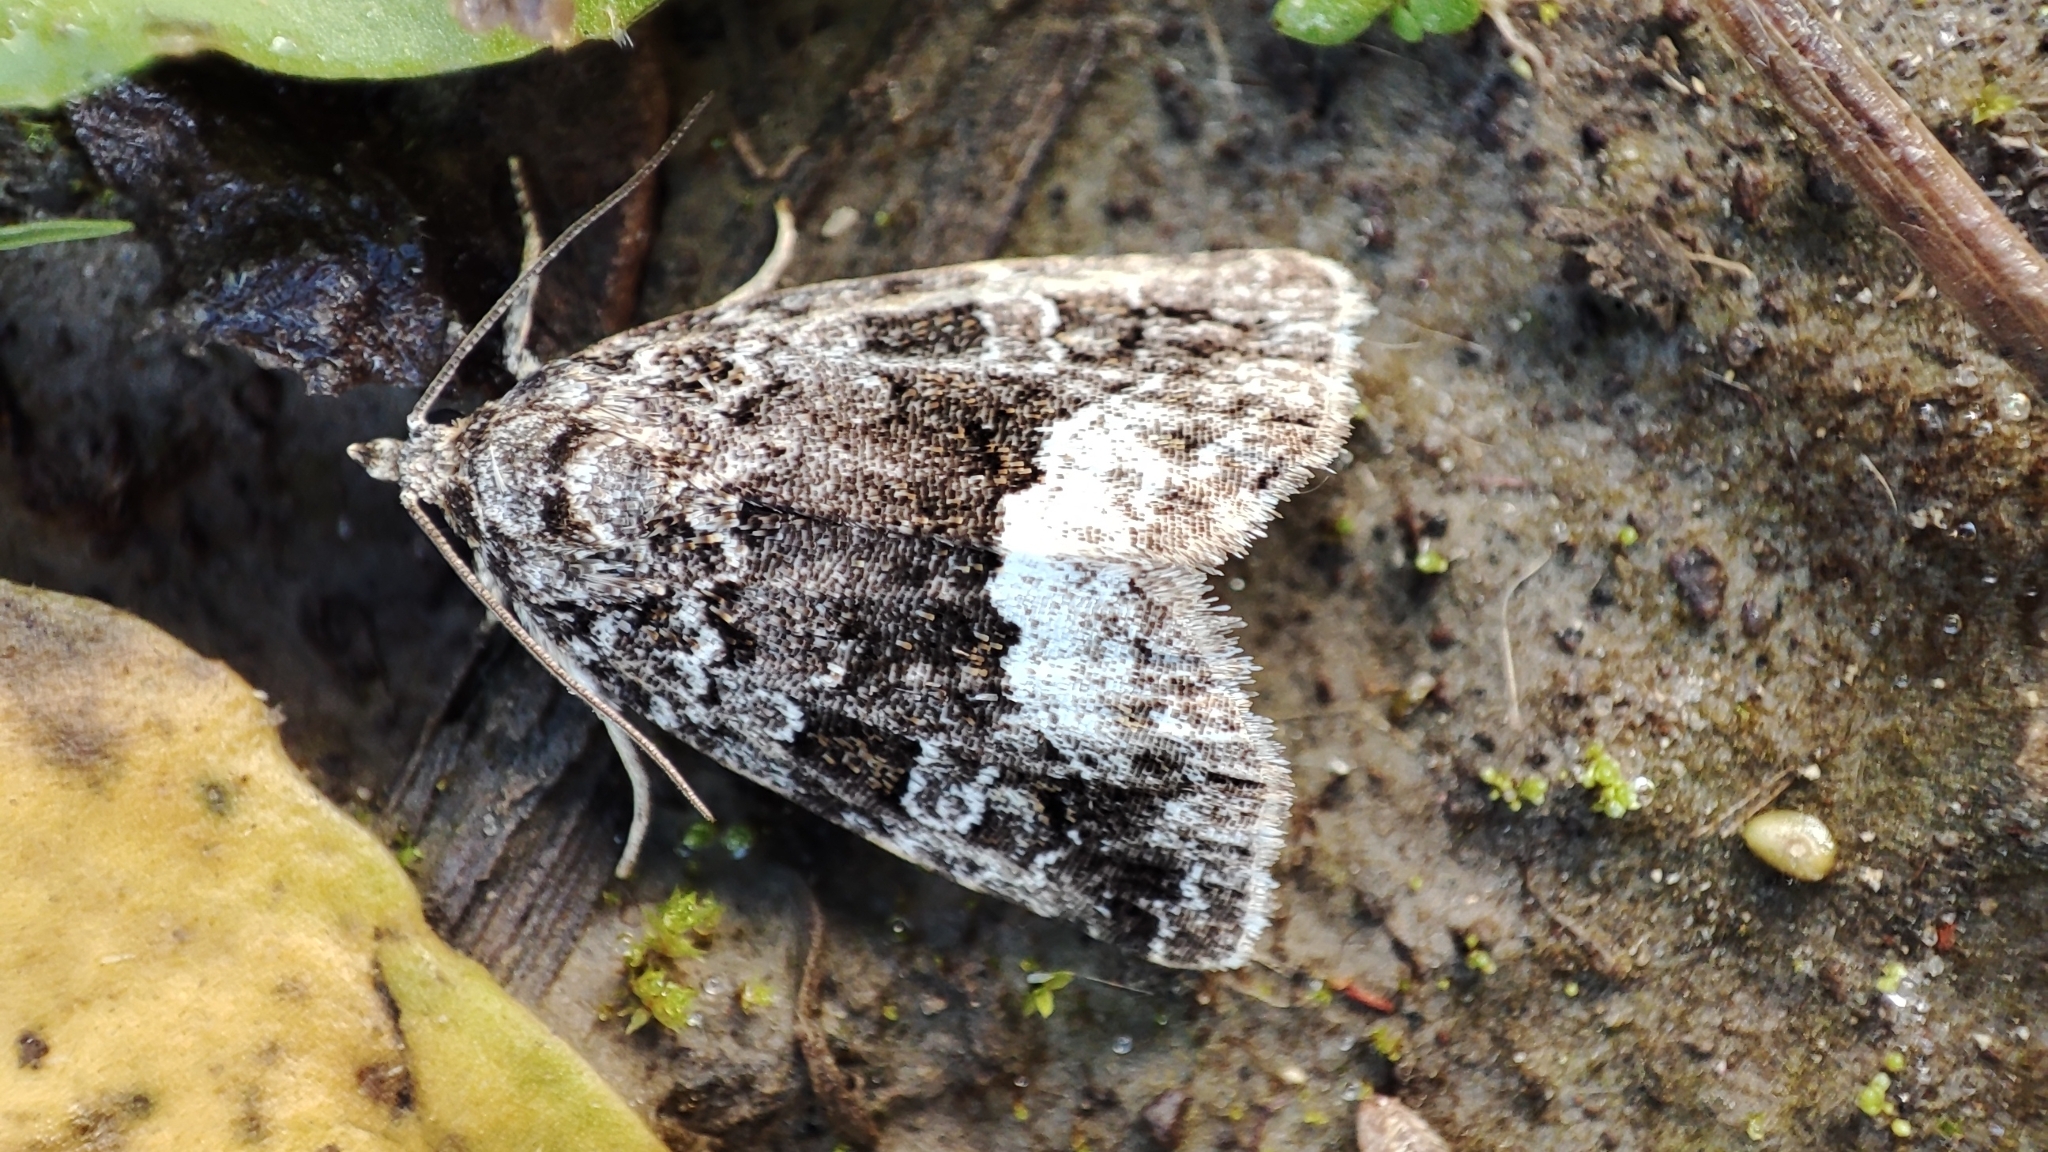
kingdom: Animalia
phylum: Arthropoda
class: Insecta
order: Lepidoptera
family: Noctuidae
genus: Deltote
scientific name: Deltote pygarga
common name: Marbled white spot
